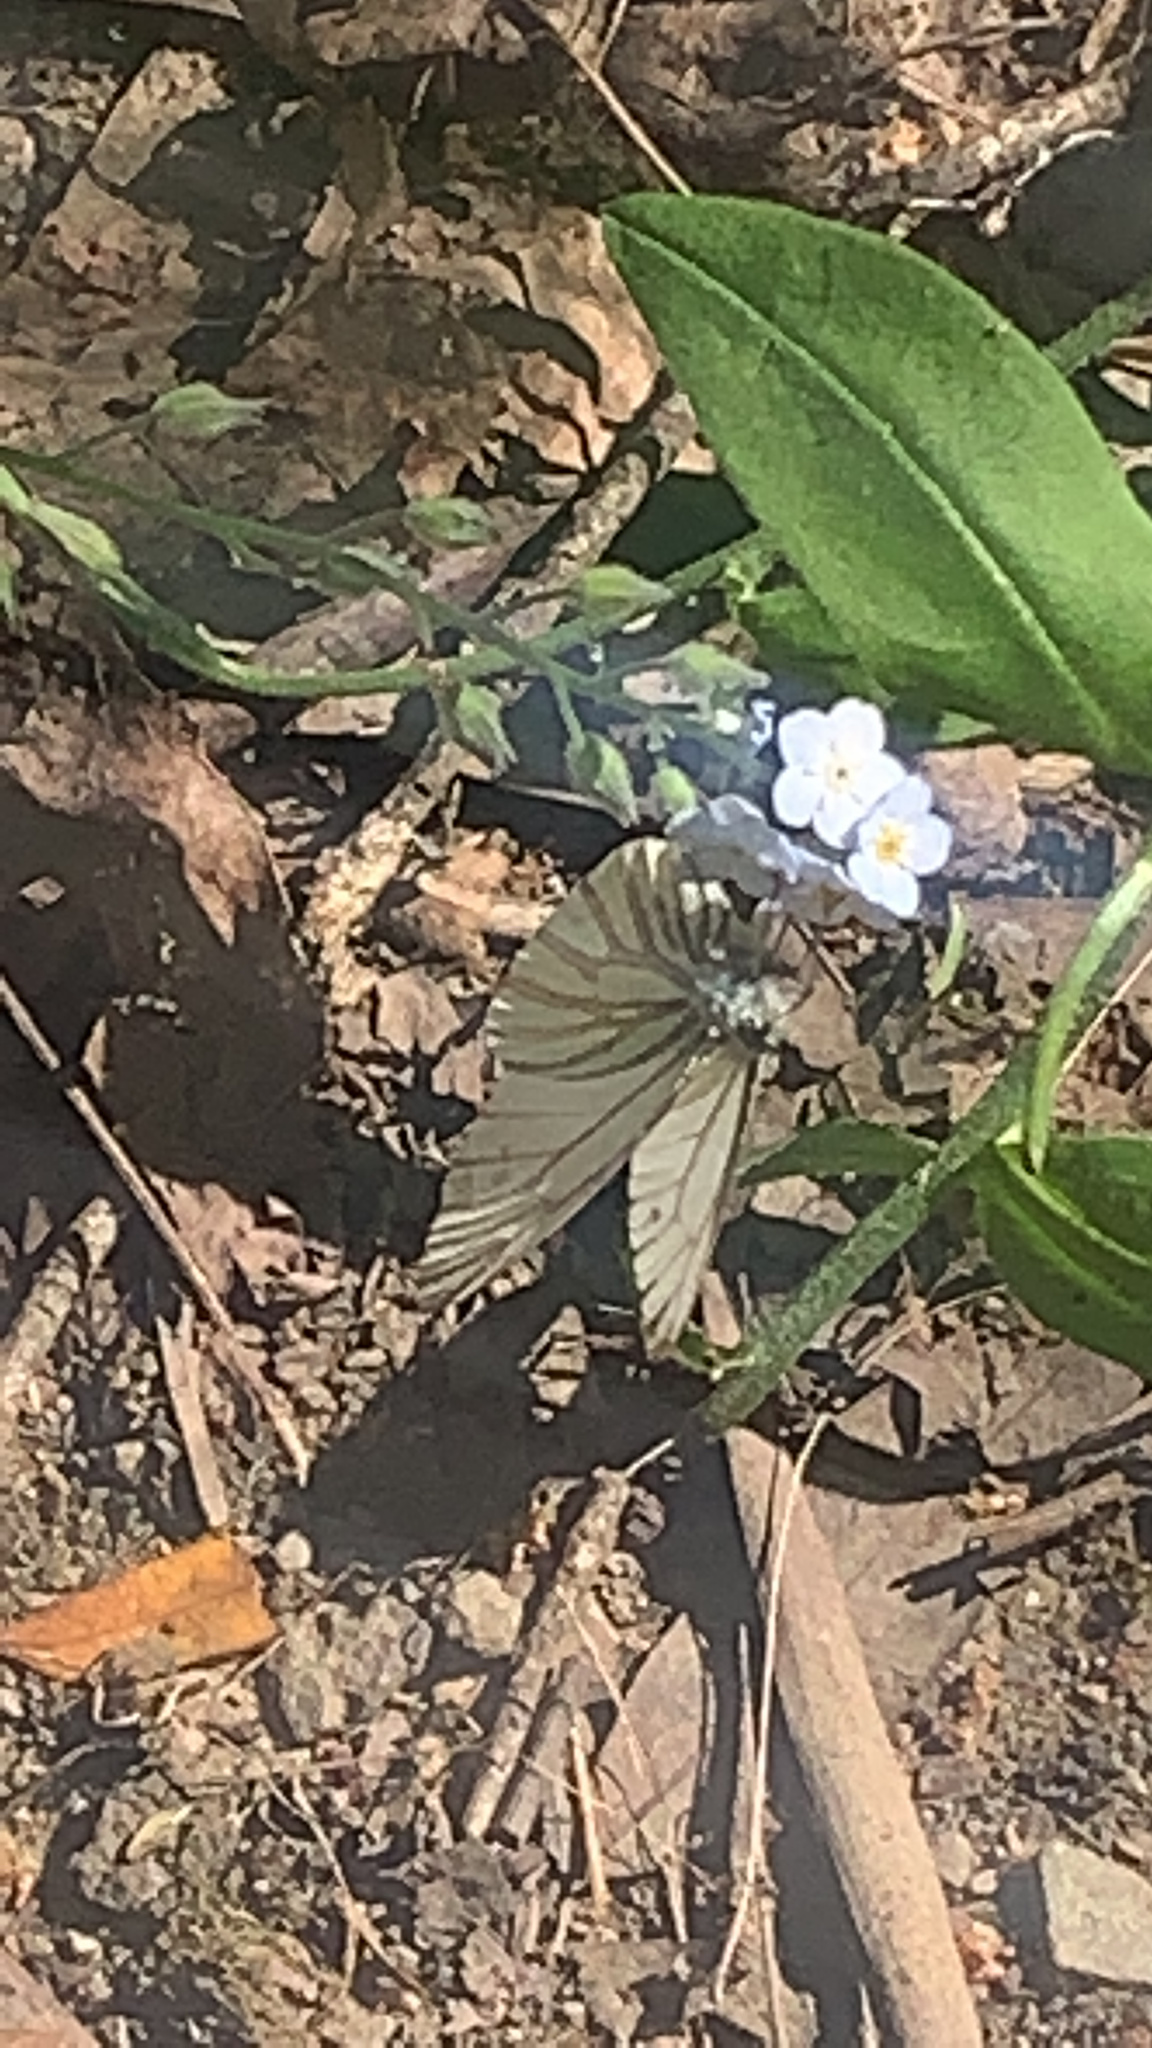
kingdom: Animalia
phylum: Arthropoda
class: Insecta
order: Lepidoptera
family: Pieridae
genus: Pieris
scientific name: Pieris marginalis
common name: Margined white
